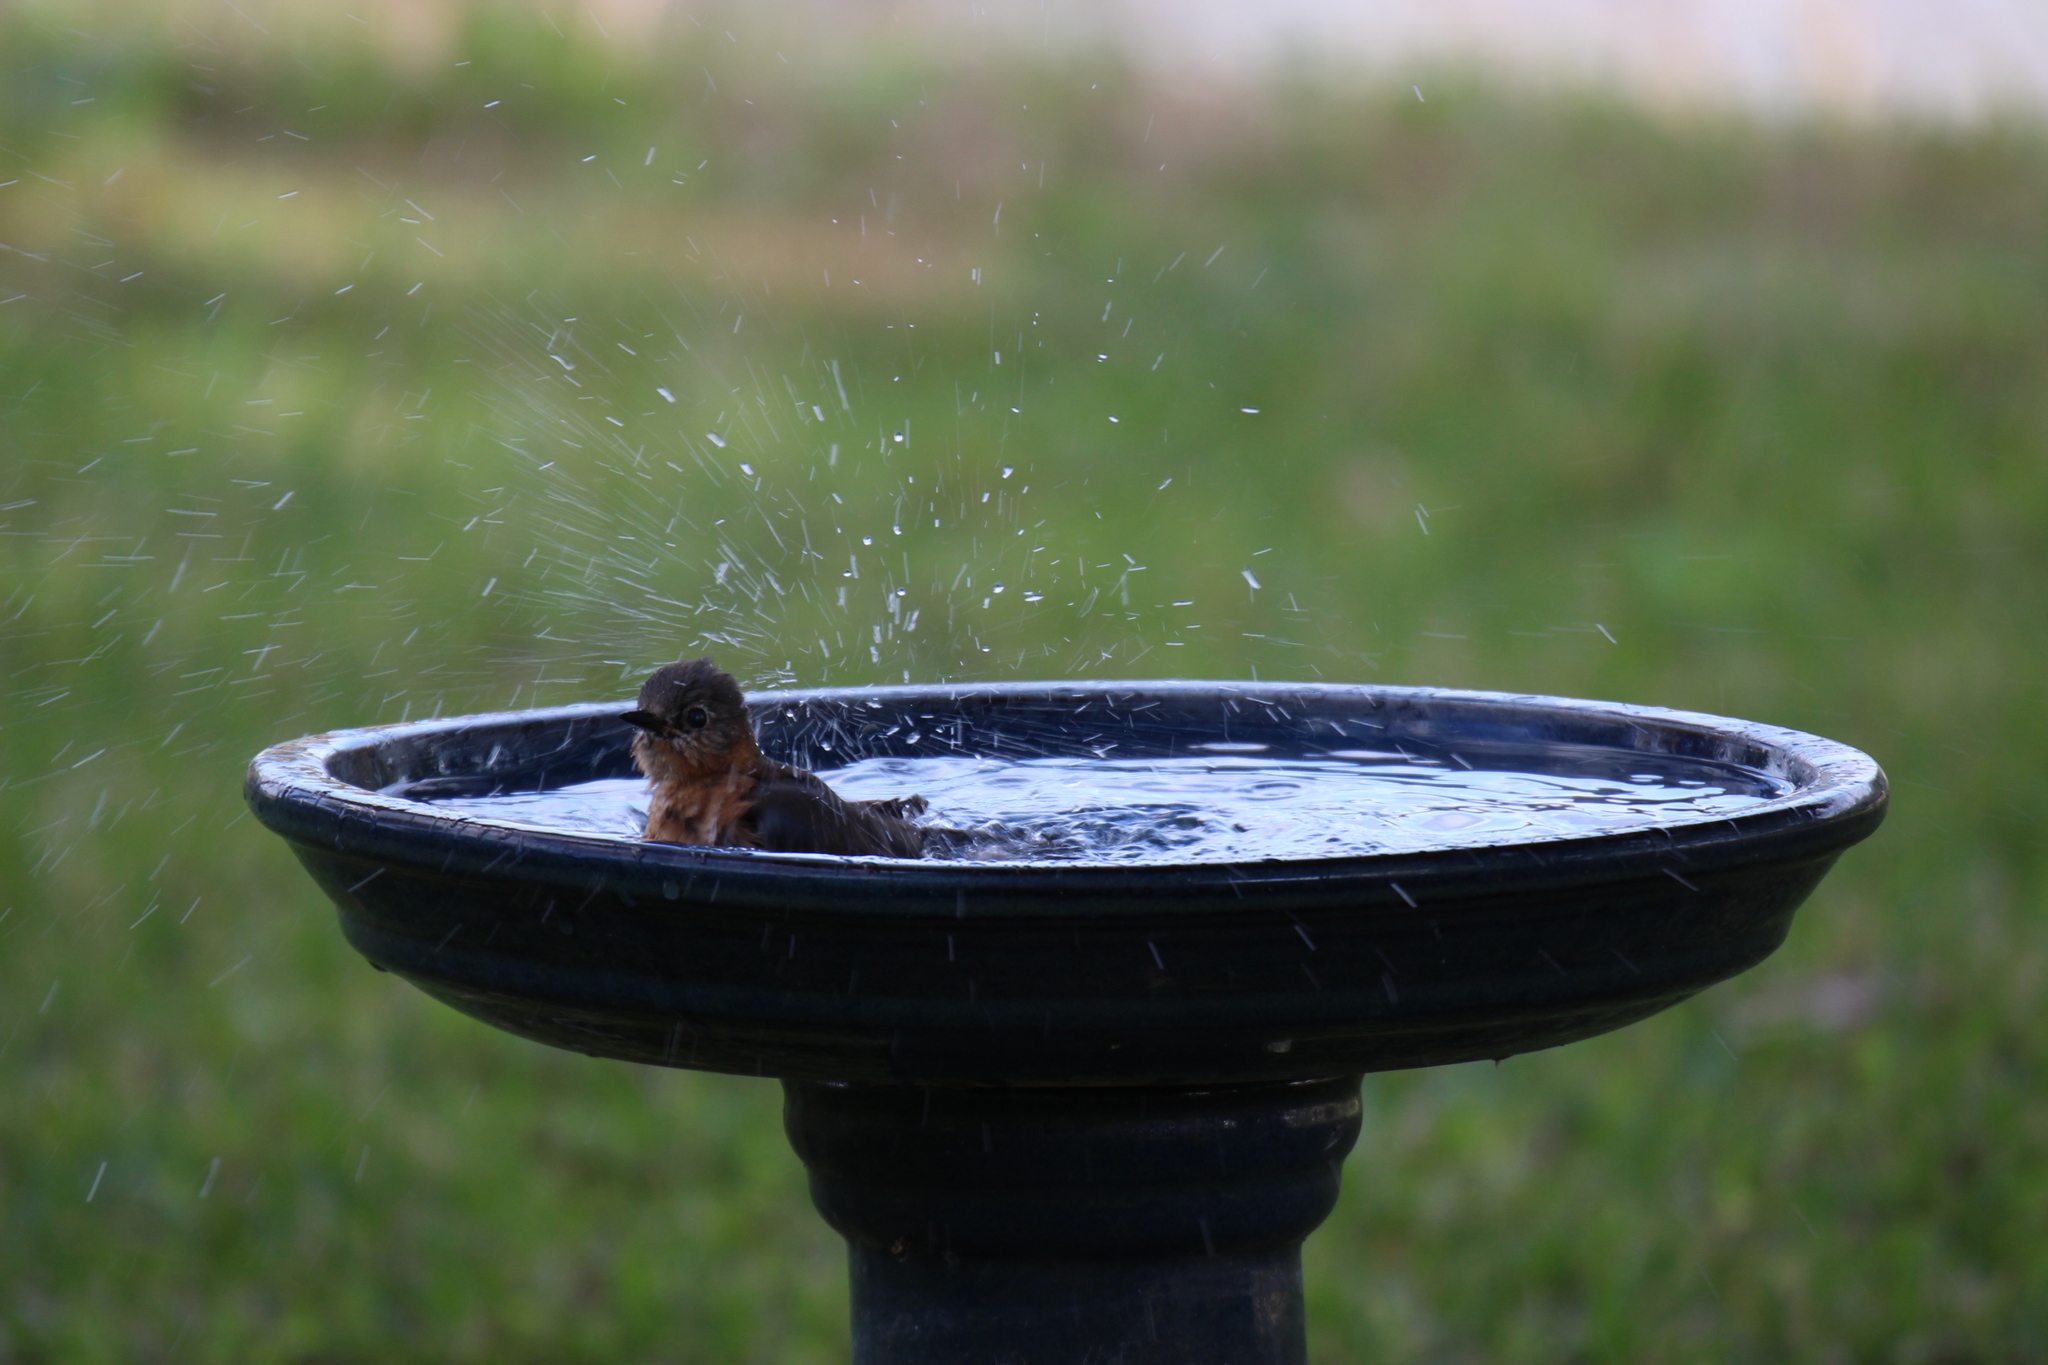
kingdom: Animalia
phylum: Chordata
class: Aves
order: Passeriformes
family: Turdidae
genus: Sialia
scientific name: Sialia sialis
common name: Eastern bluebird
